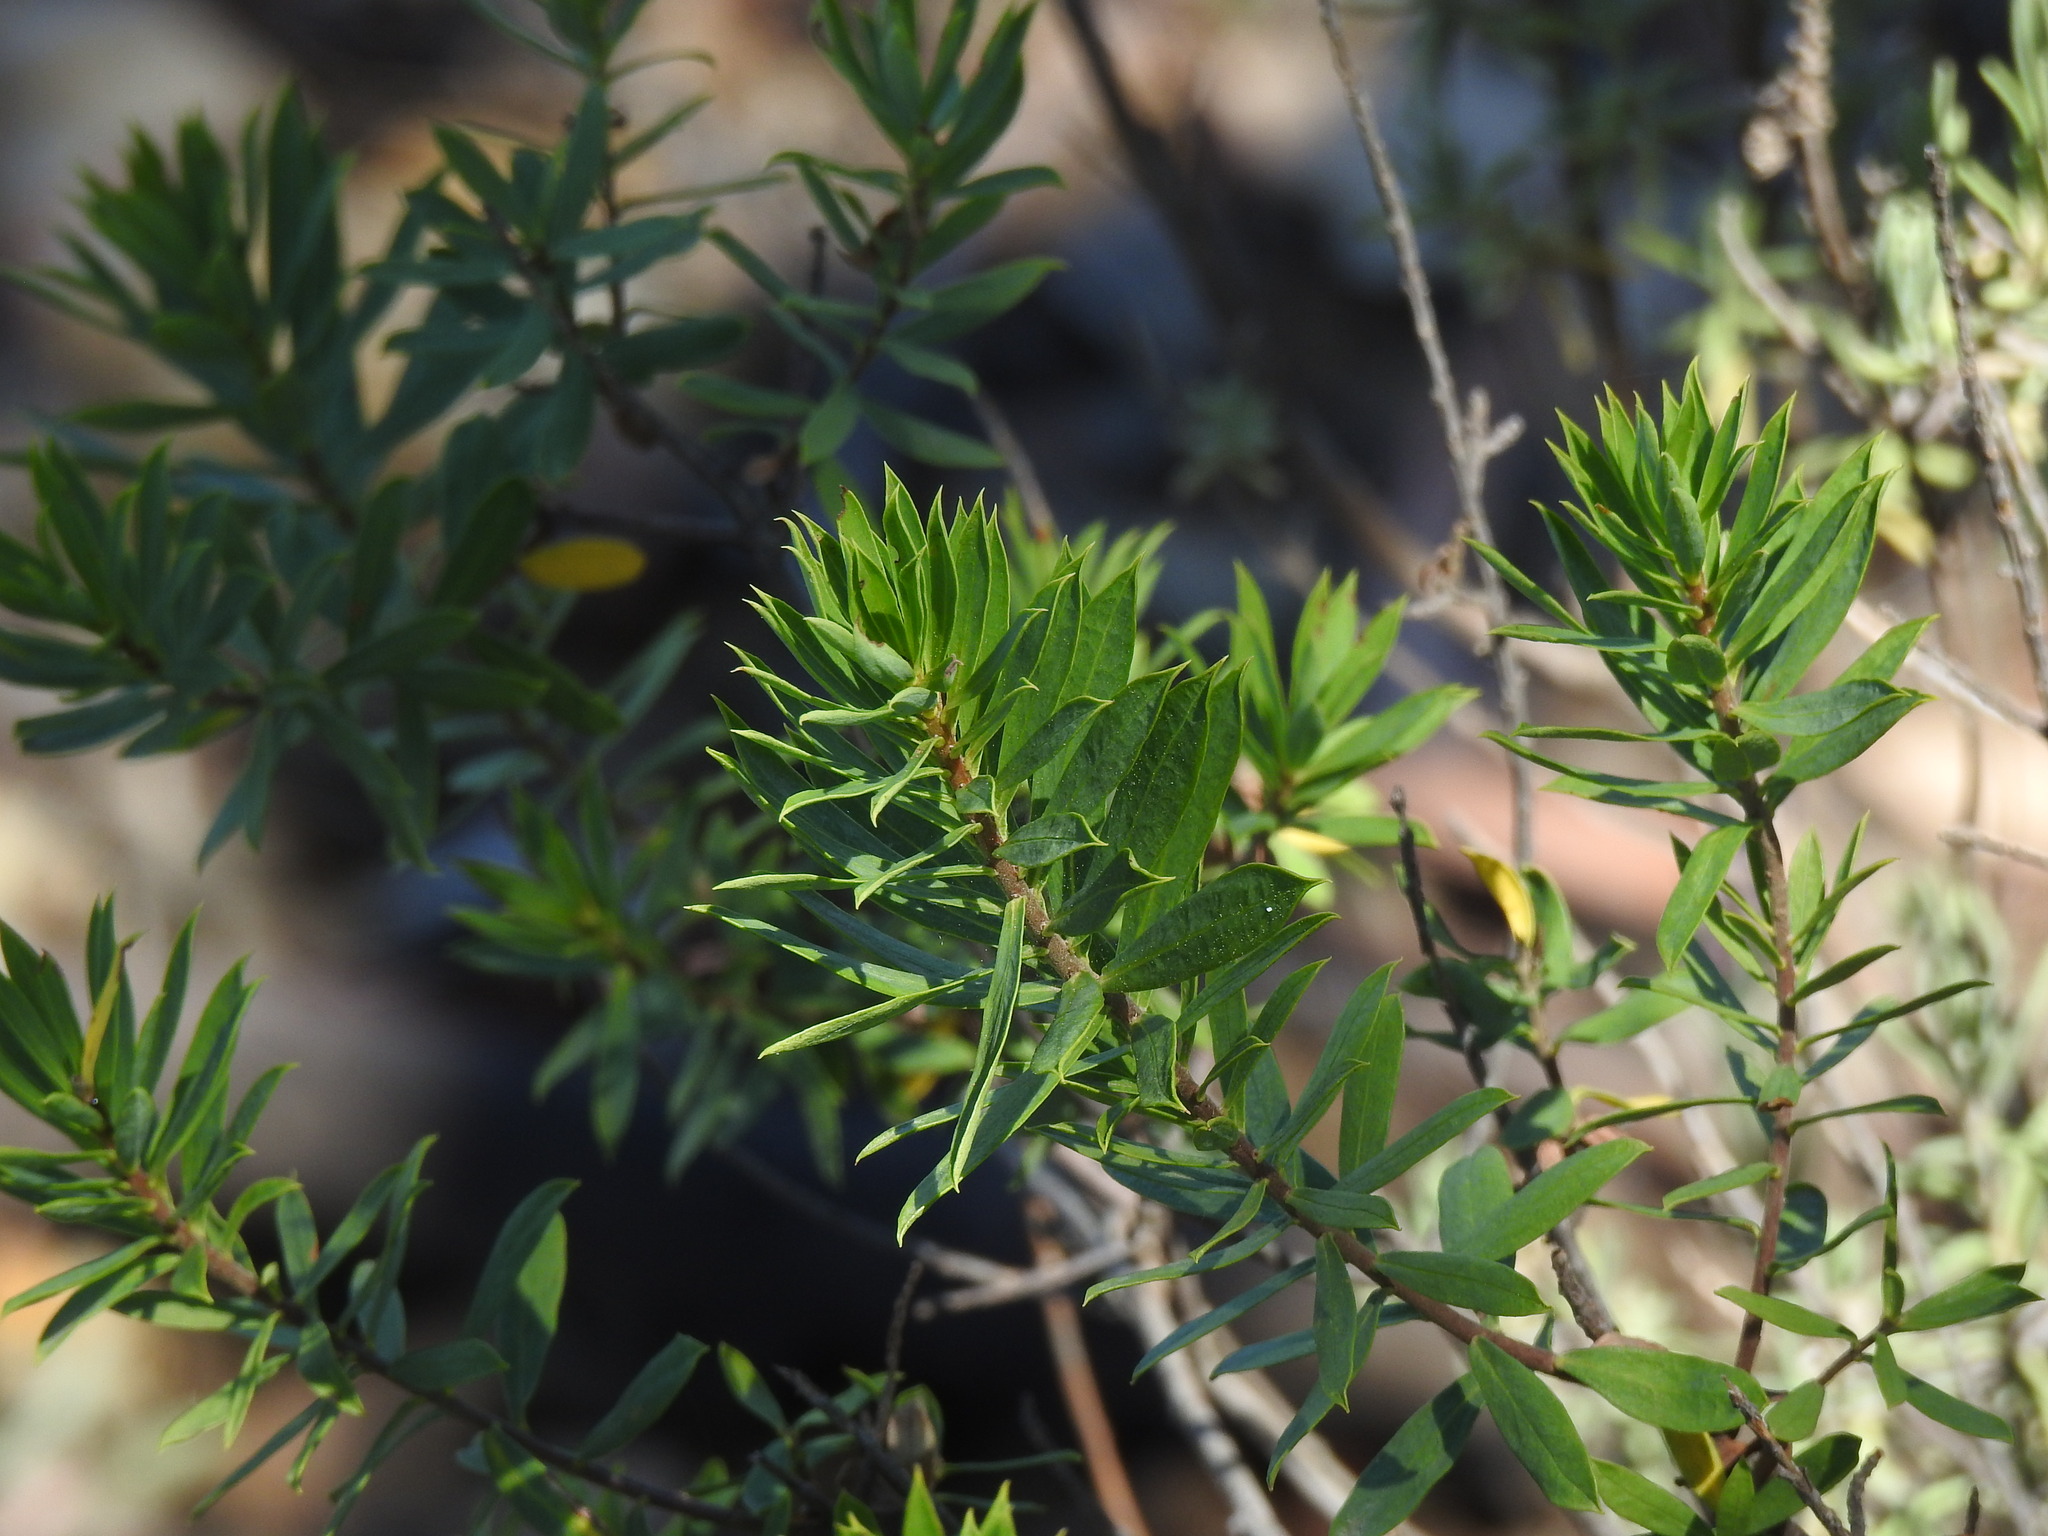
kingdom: Plantae
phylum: Tracheophyta
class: Magnoliopsida
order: Malvales
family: Thymelaeaceae
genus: Daphne
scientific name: Daphne gnidium
